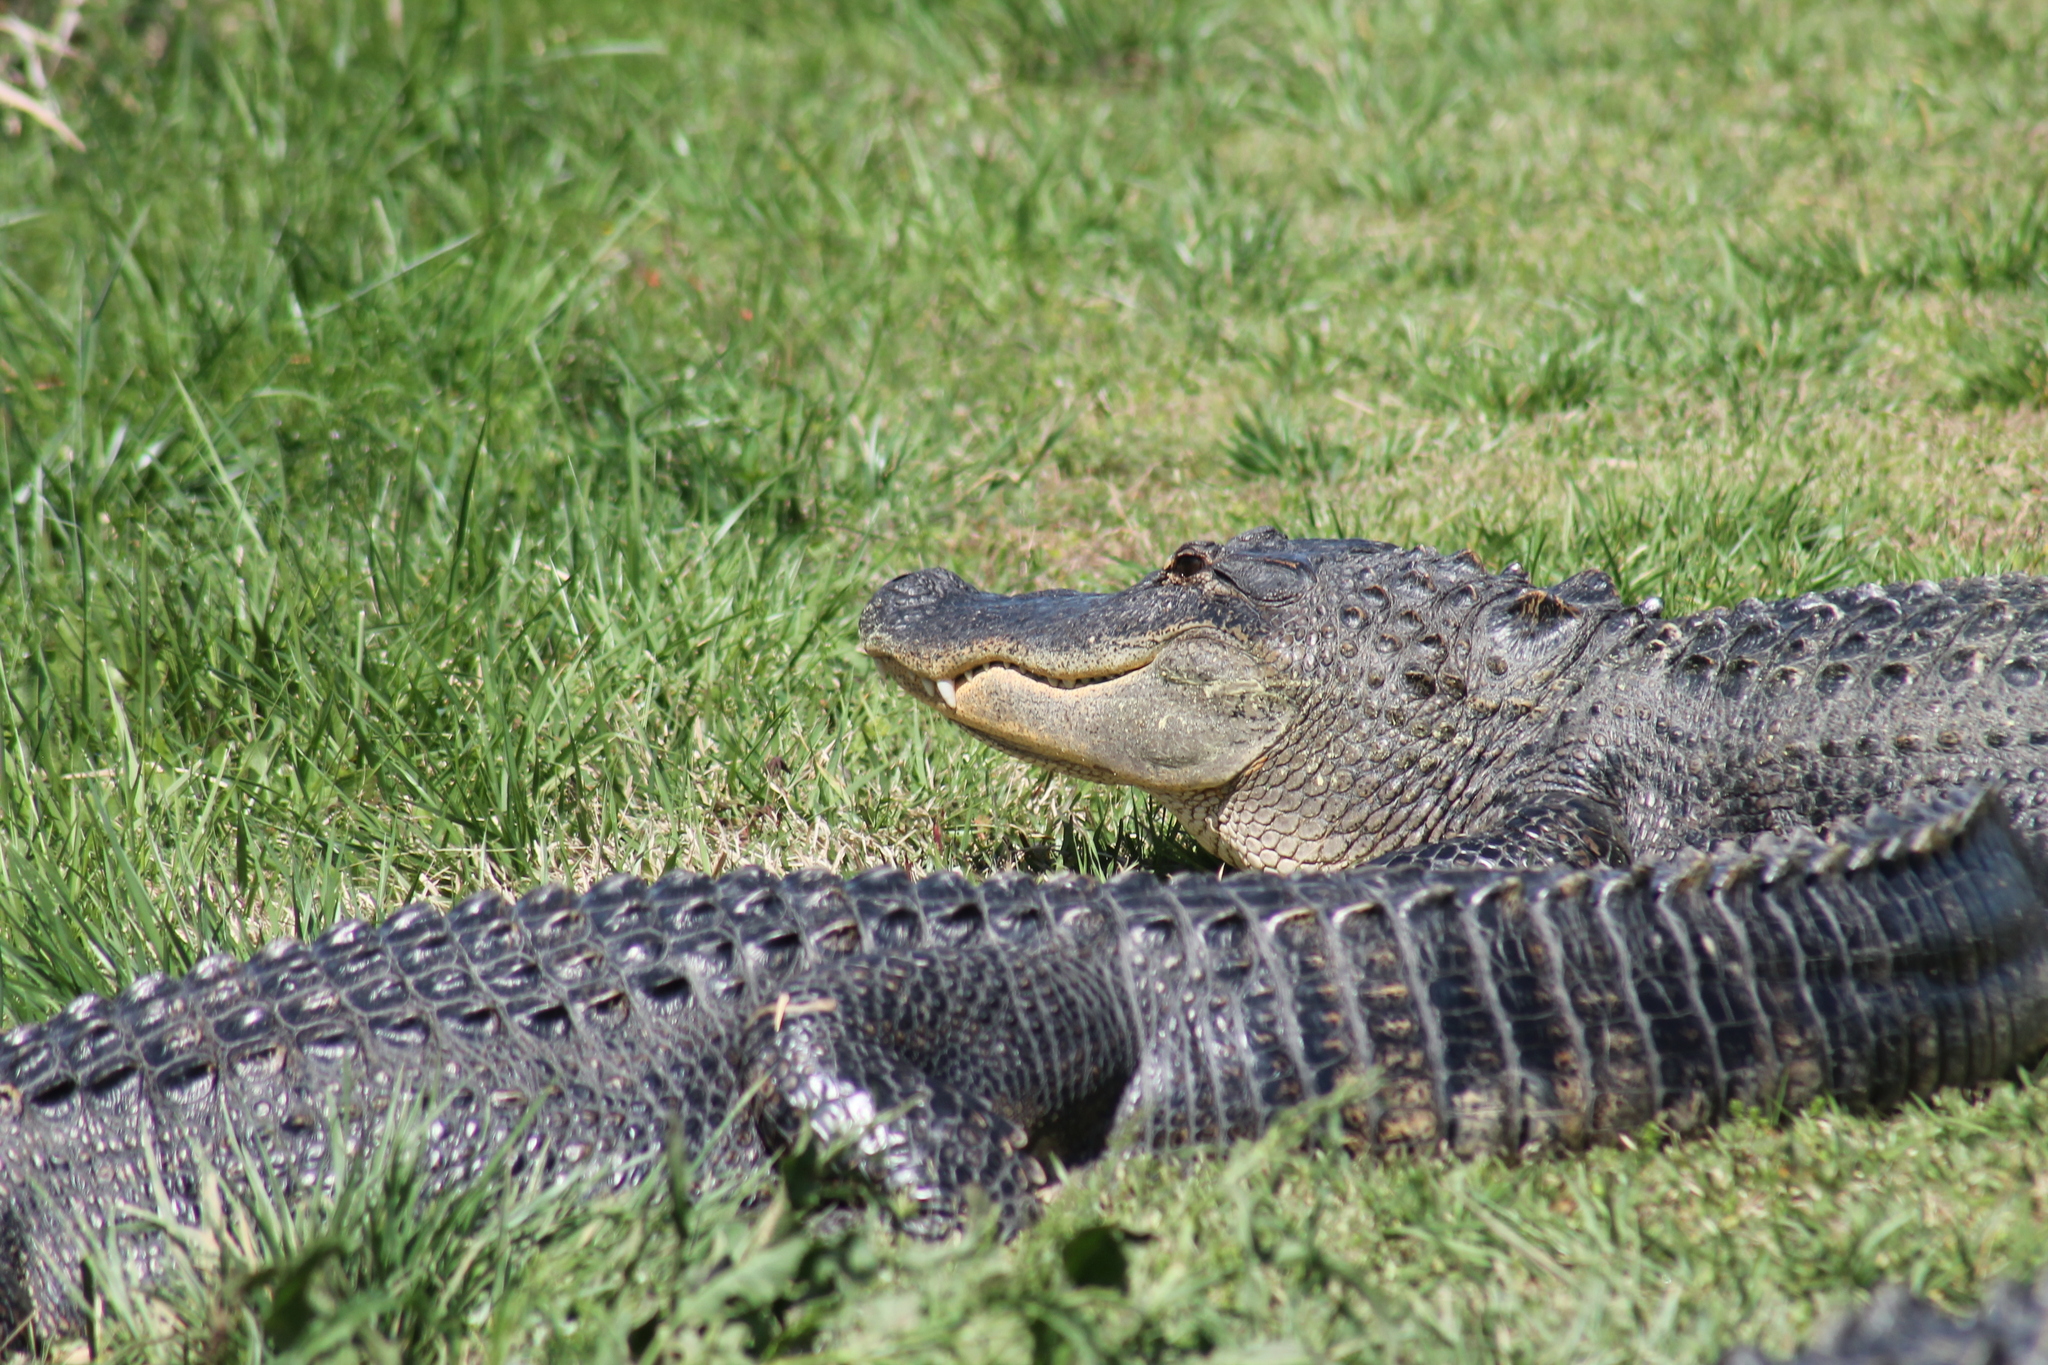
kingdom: Animalia
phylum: Chordata
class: Crocodylia
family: Alligatoridae
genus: Alligator
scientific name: Alligator mississippiensis
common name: American alligator
